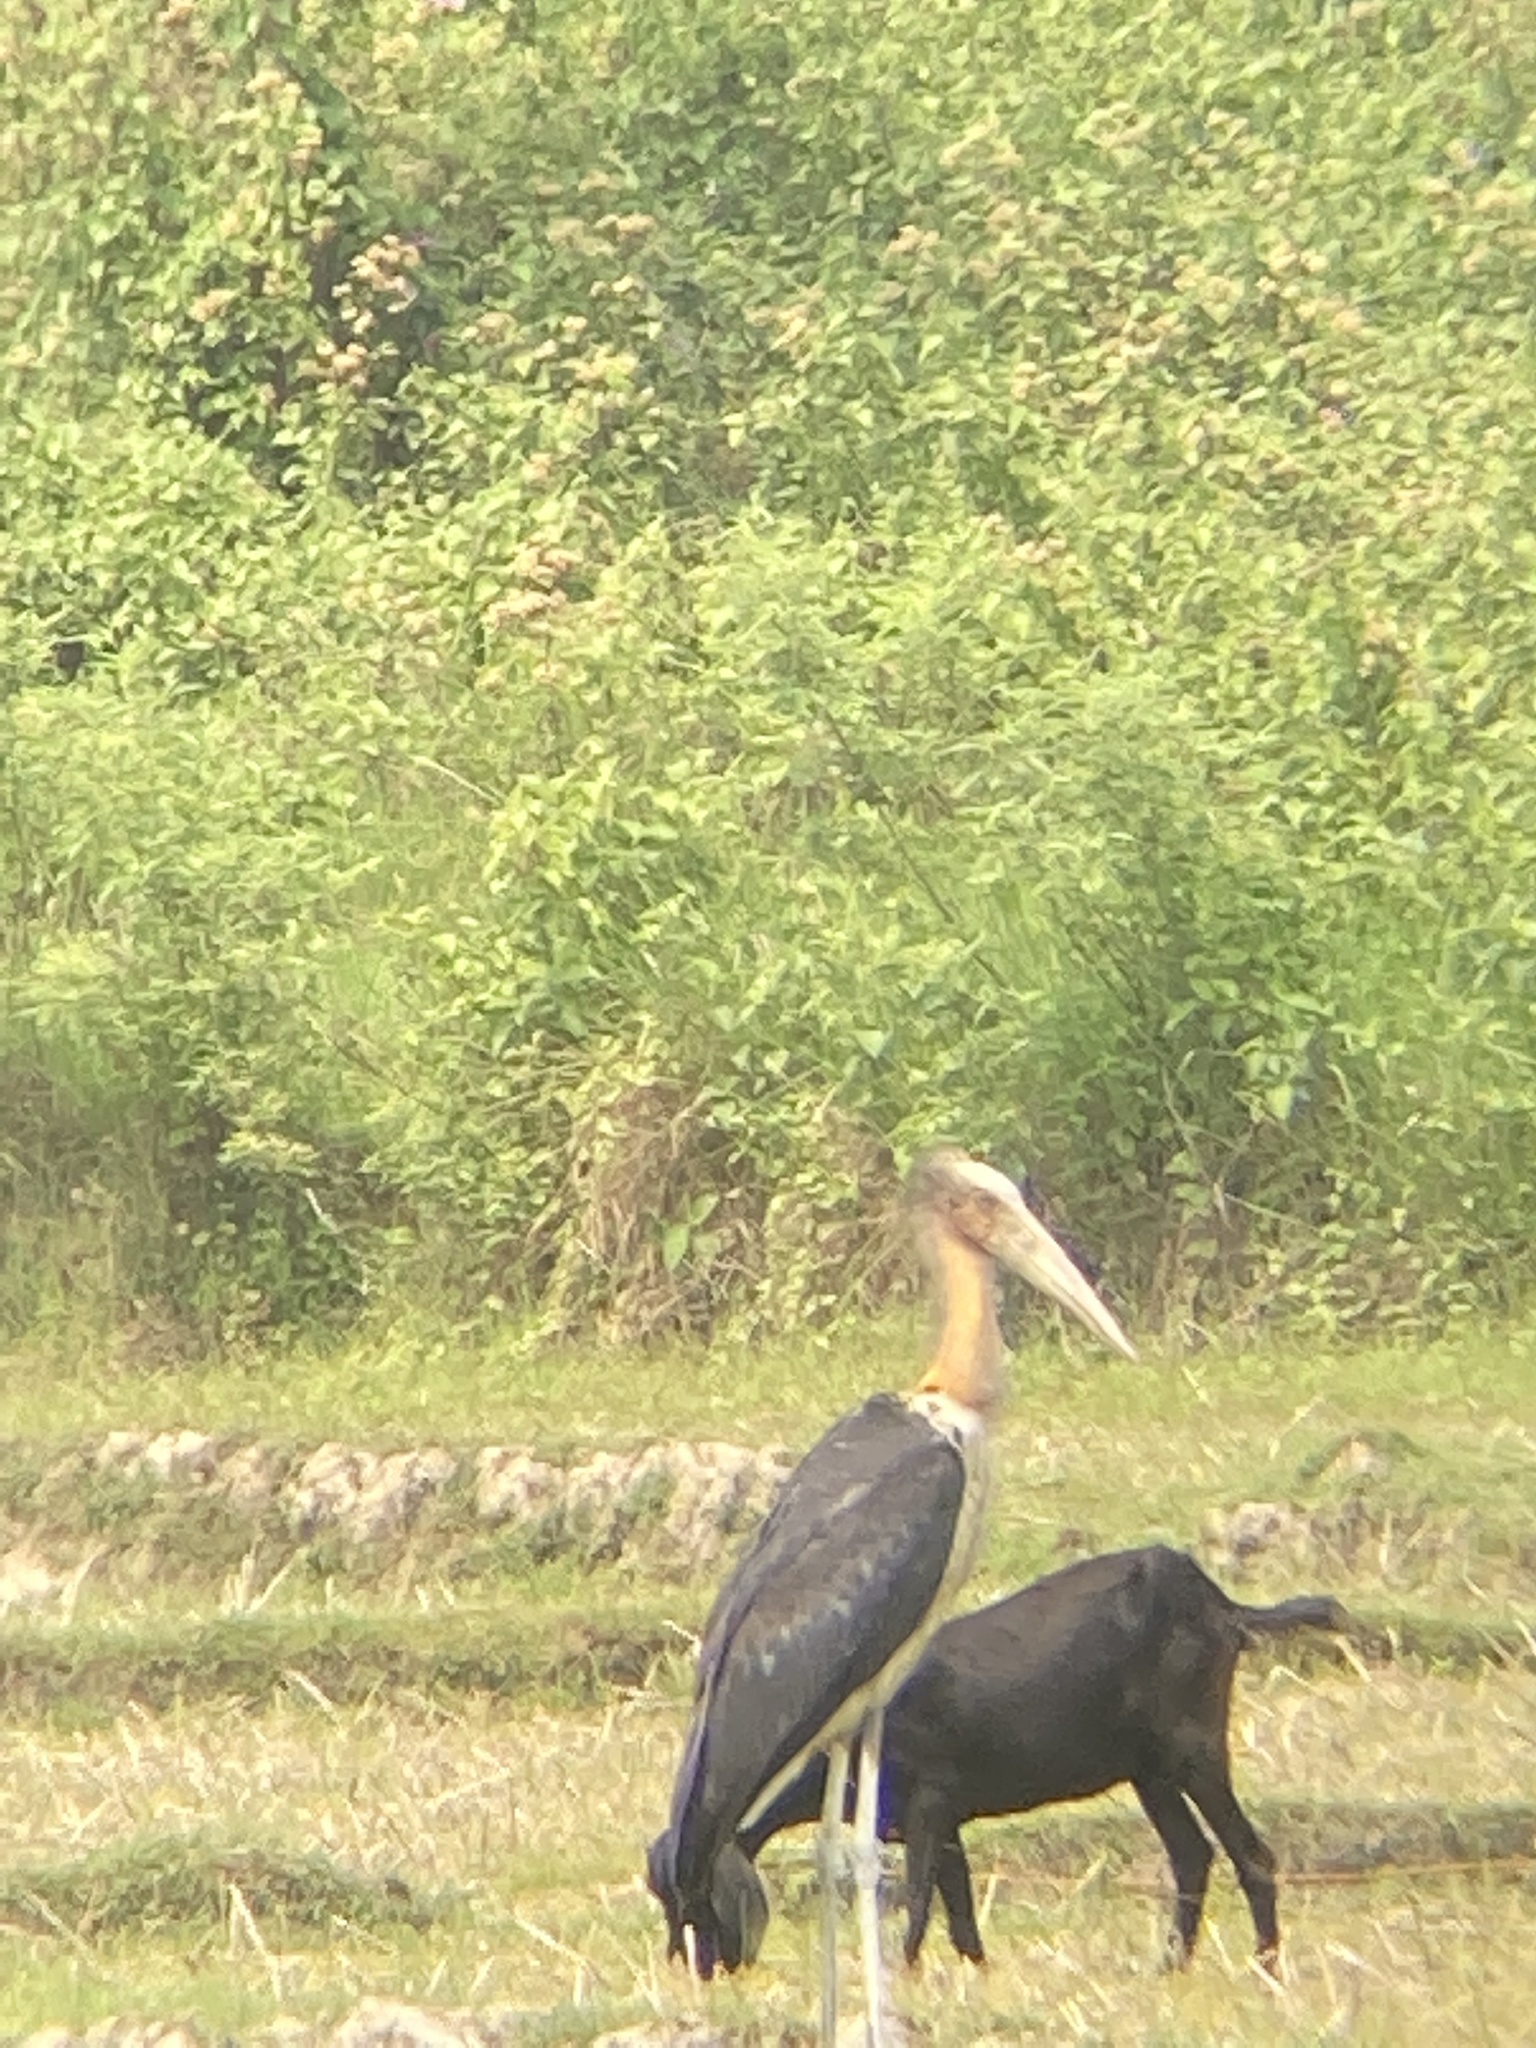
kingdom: Animalia
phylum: Chordata
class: Aves
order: Ciconiiformes
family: Ciconiidae
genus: Leptoptilos
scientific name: Leptoptilos javanicus
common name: Lesser adjutant
